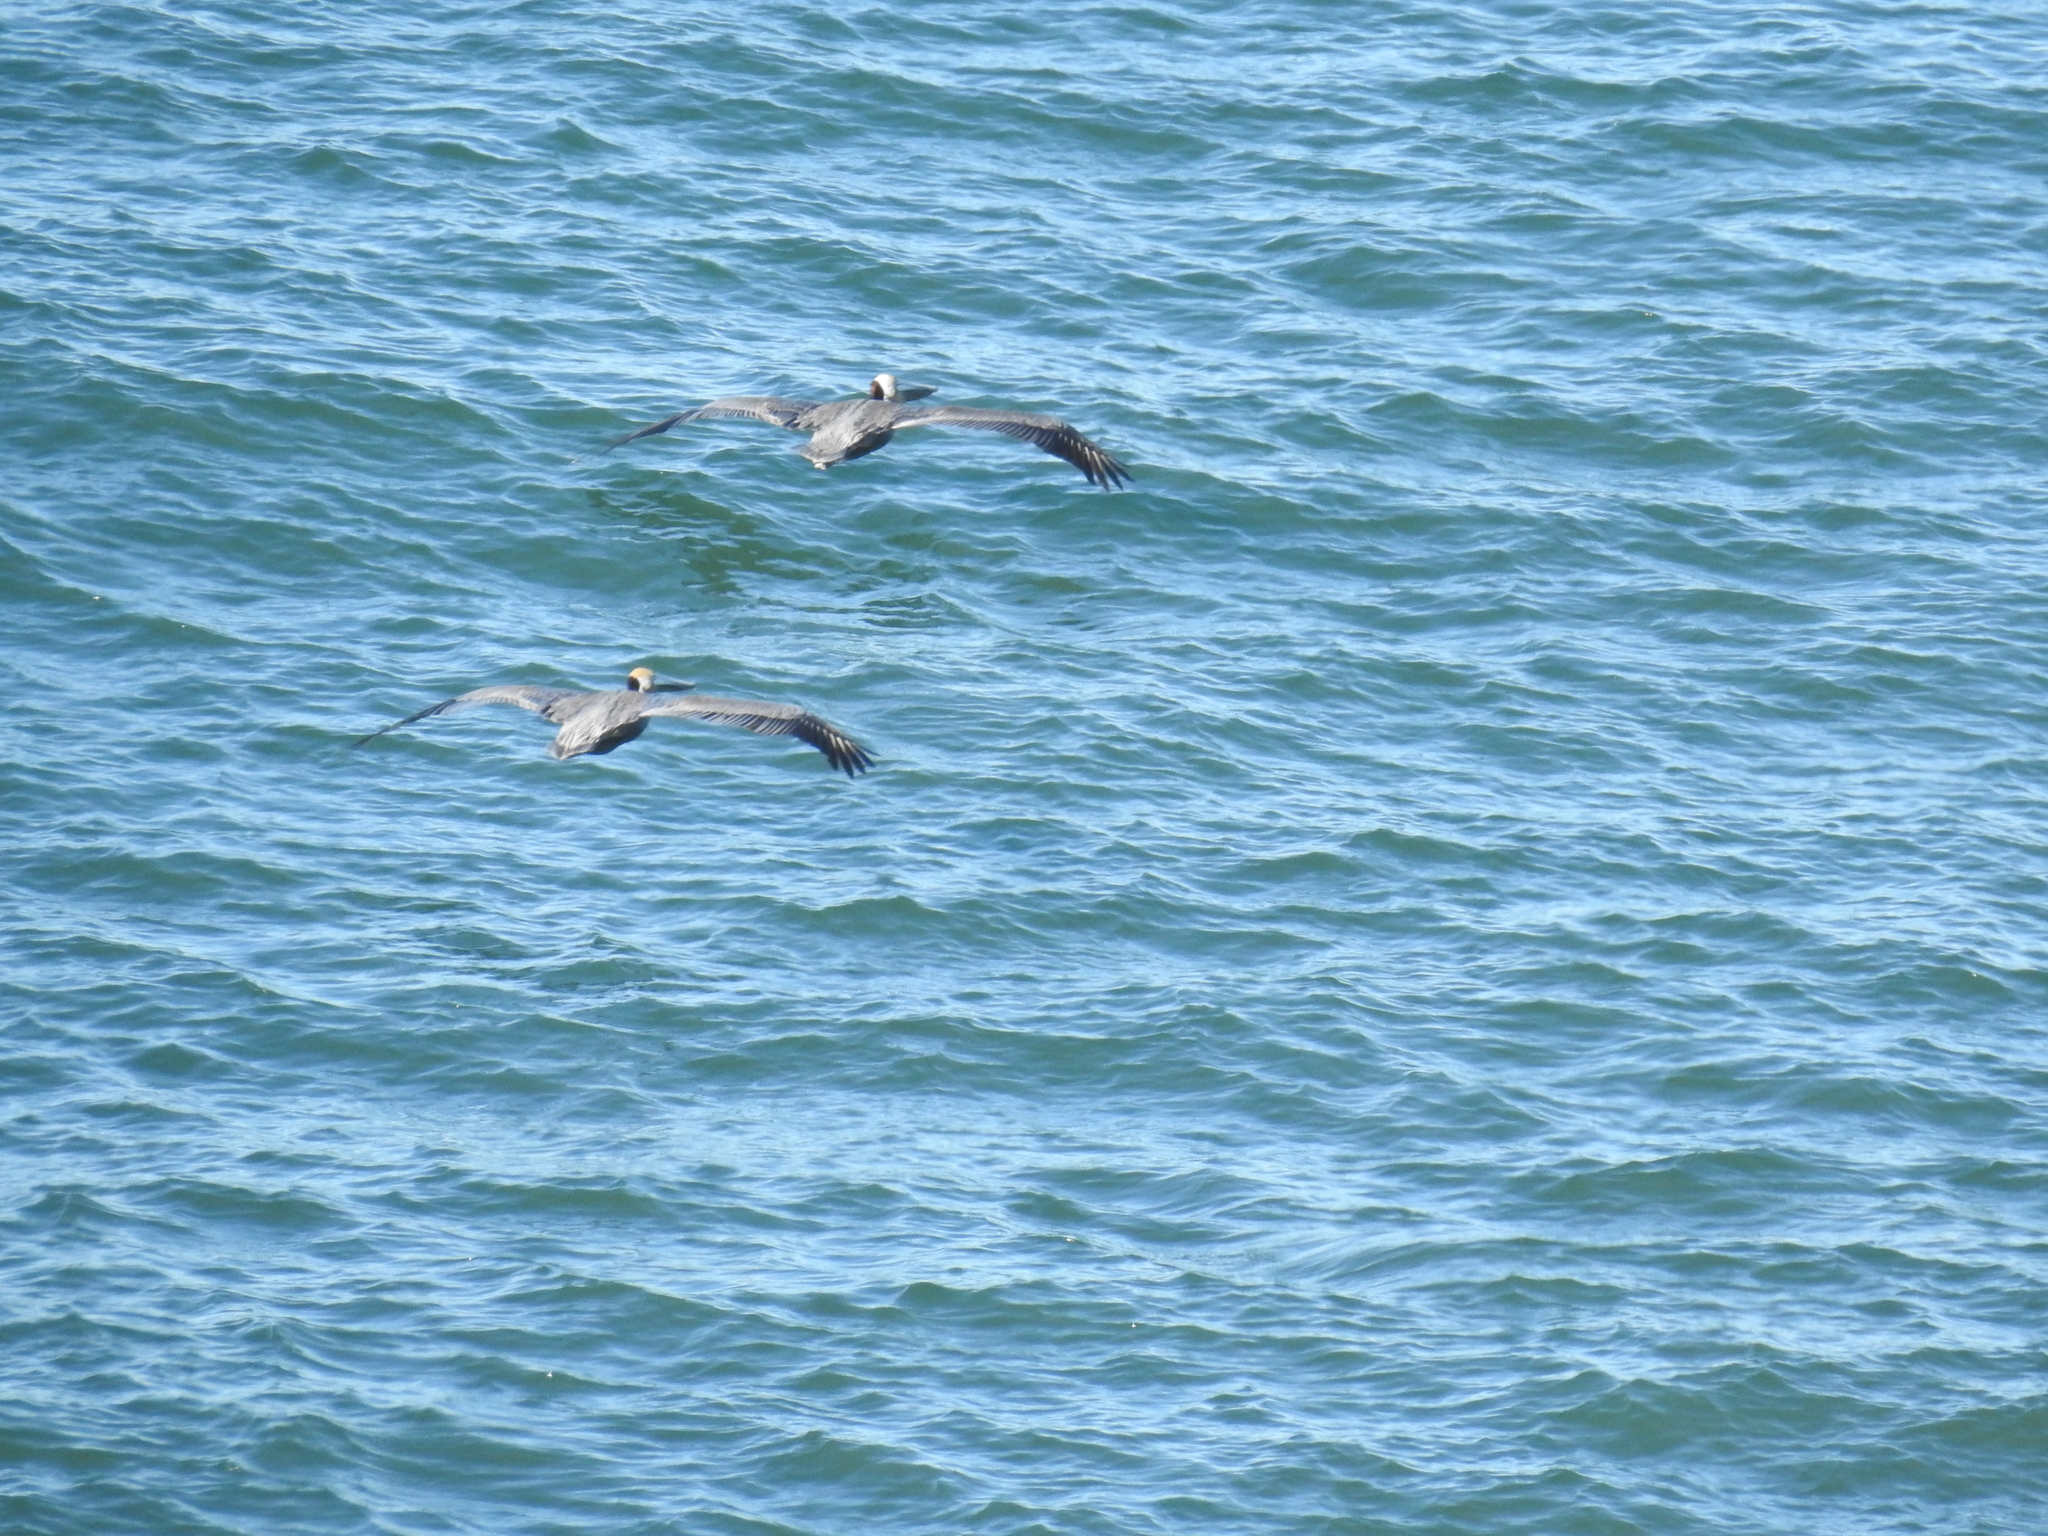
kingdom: Animalia
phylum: Chordata
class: Aves
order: Pelecaniformes
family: Pelecanidae
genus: Pelecanus
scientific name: Pelecanus occidentalis
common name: Brown pelican
